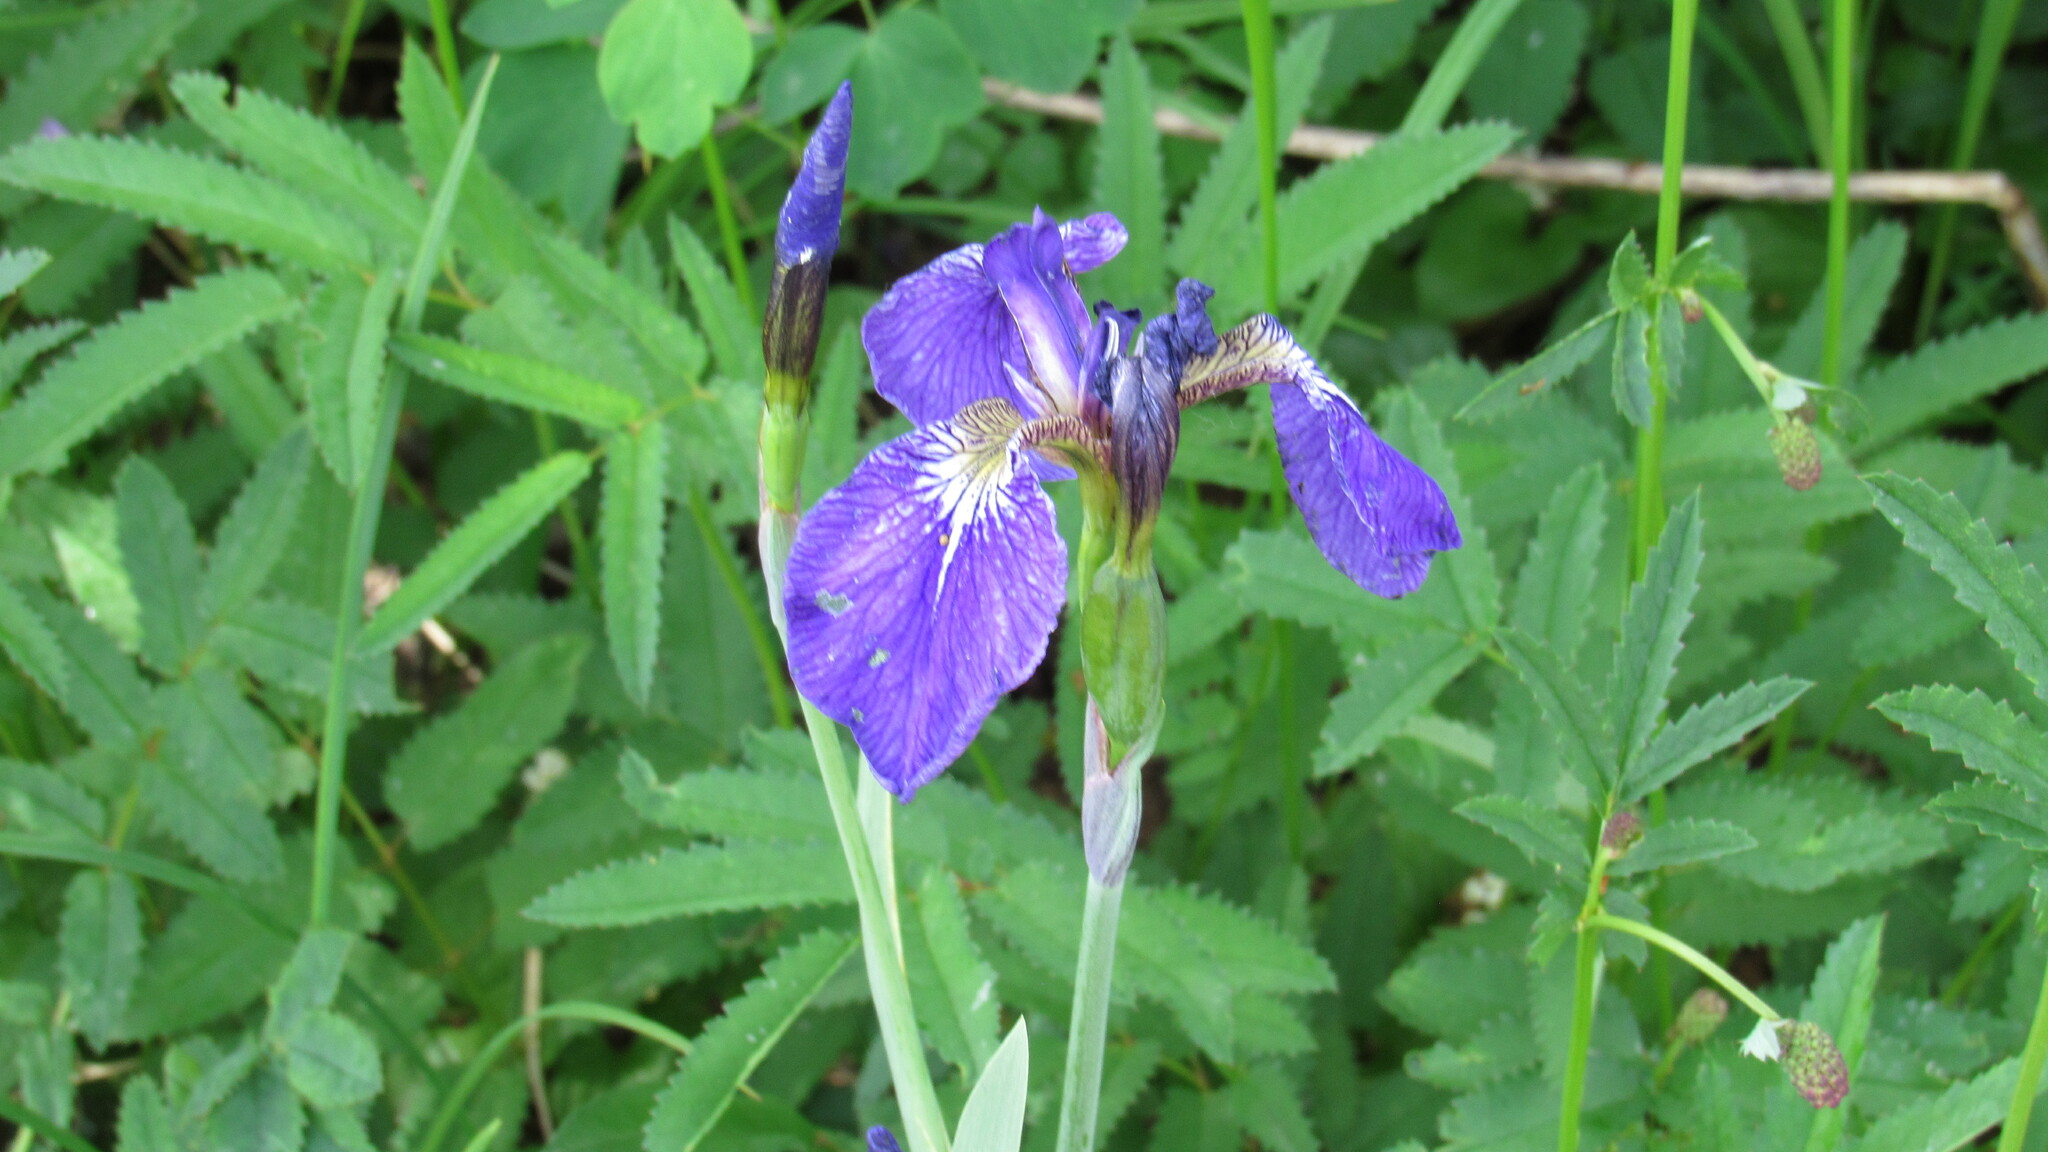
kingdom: Plantae
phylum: Tracheophyta
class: Liliopsida
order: Asparagales
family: Iridaceae
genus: Iris
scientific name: Iris setosa
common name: Arctic blue flag
